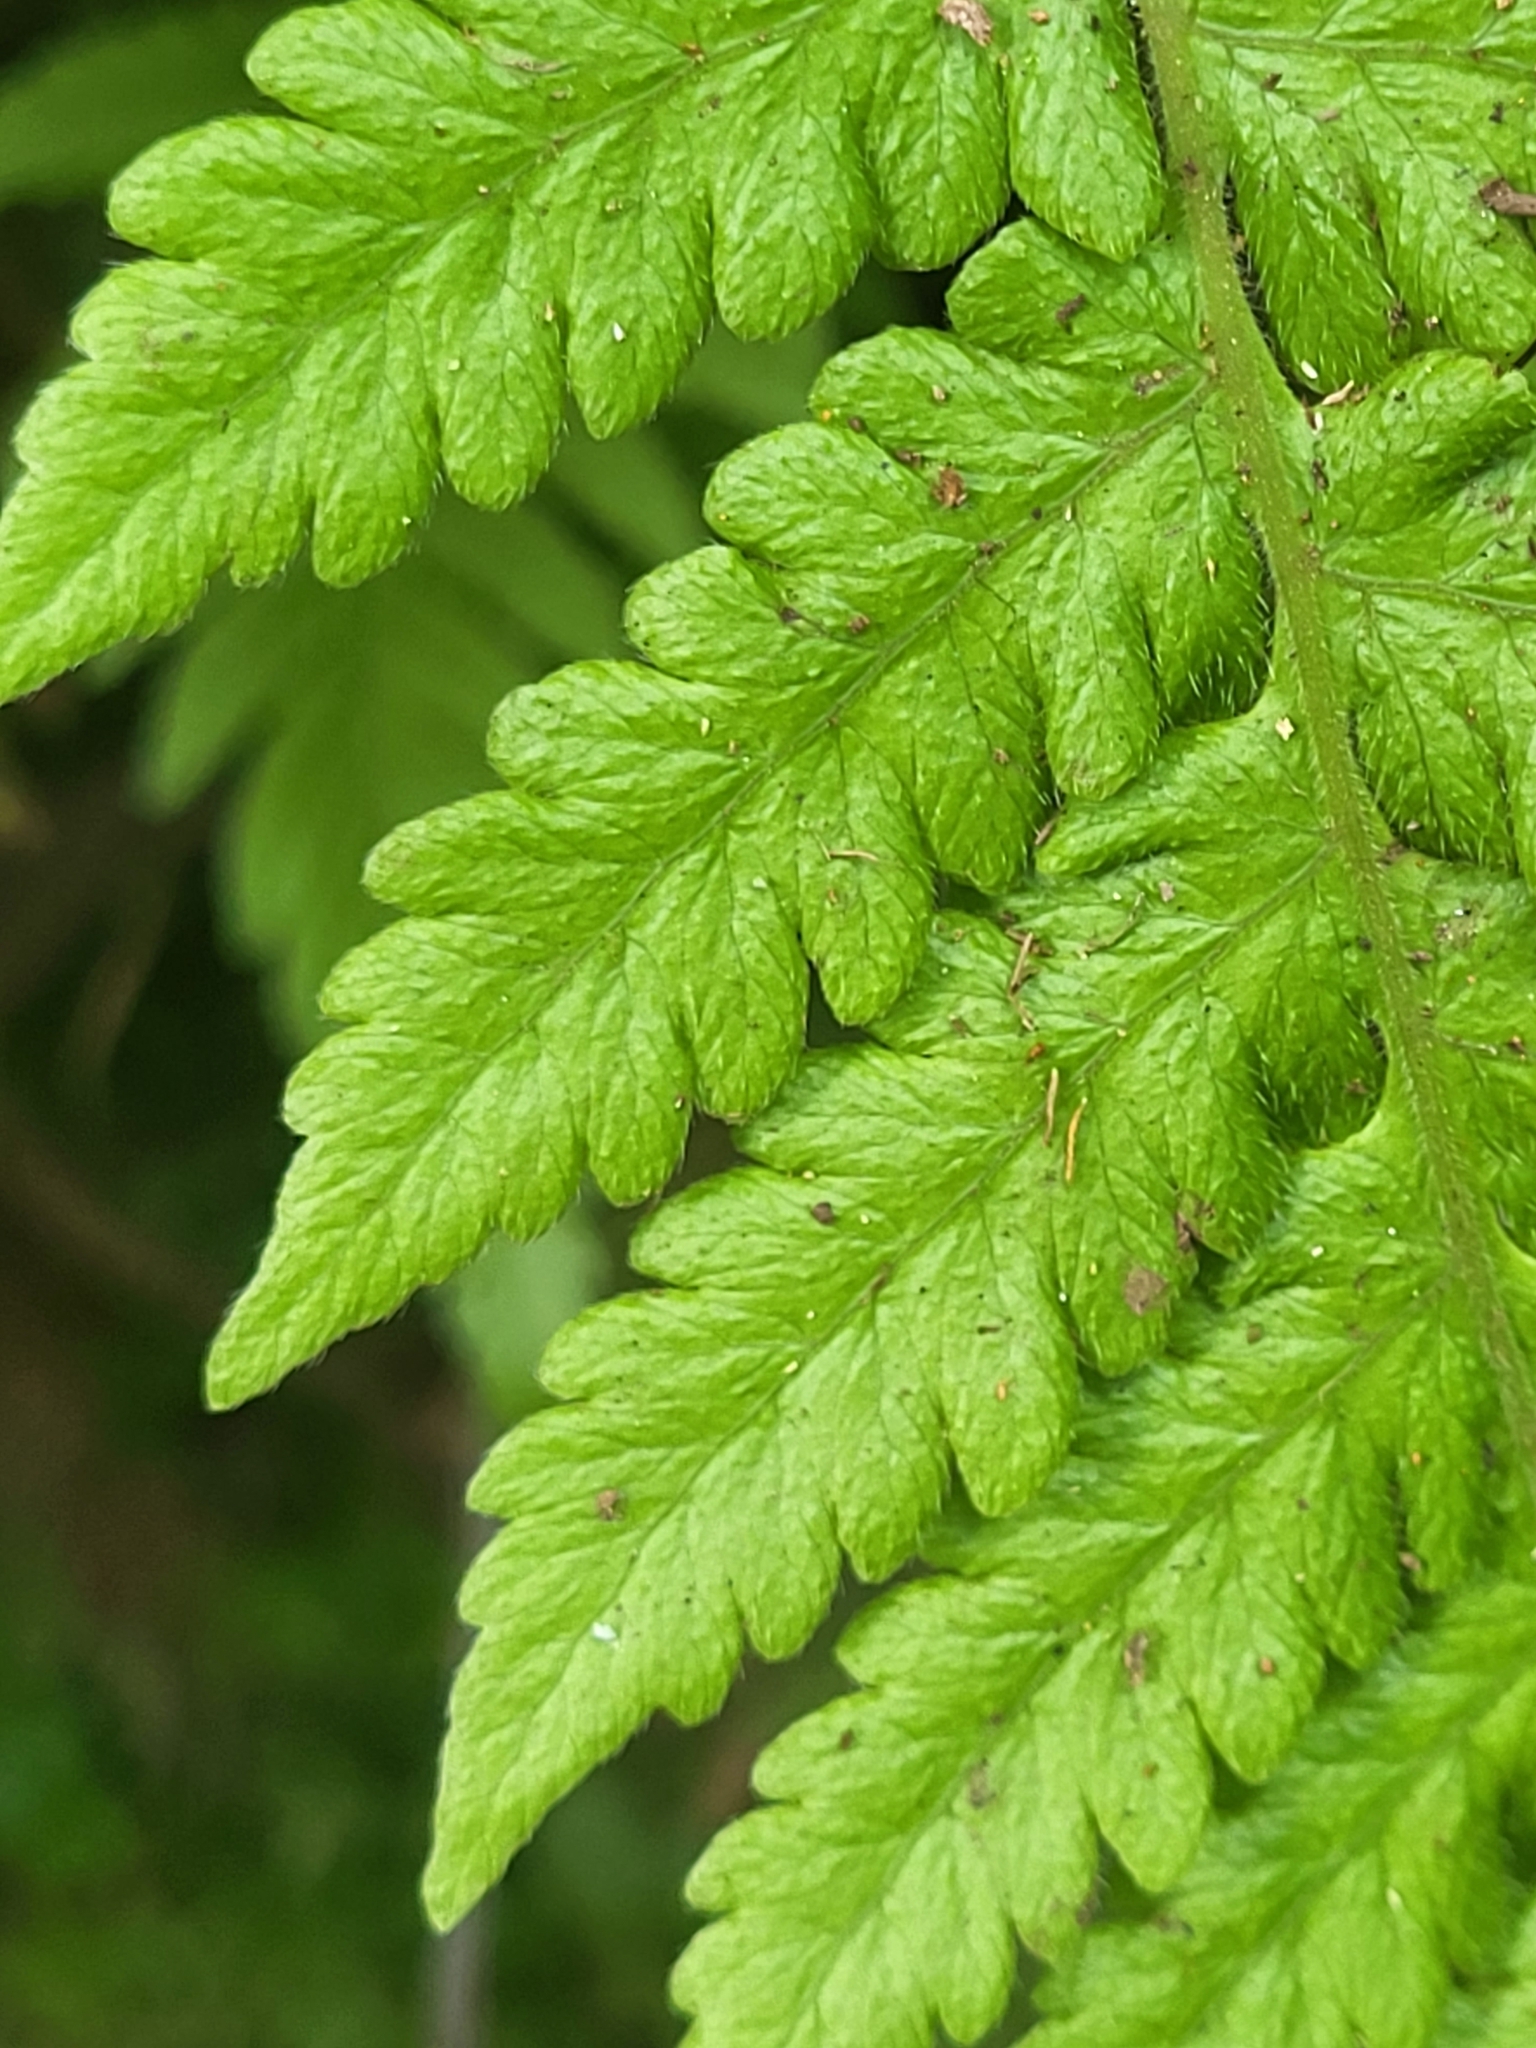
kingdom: Plantae
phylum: Tracheophyta
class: Polypodiopsida
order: Polypodiales
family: Thelypteridaceae
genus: Leptogramma
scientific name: Leptogramma pozoi
